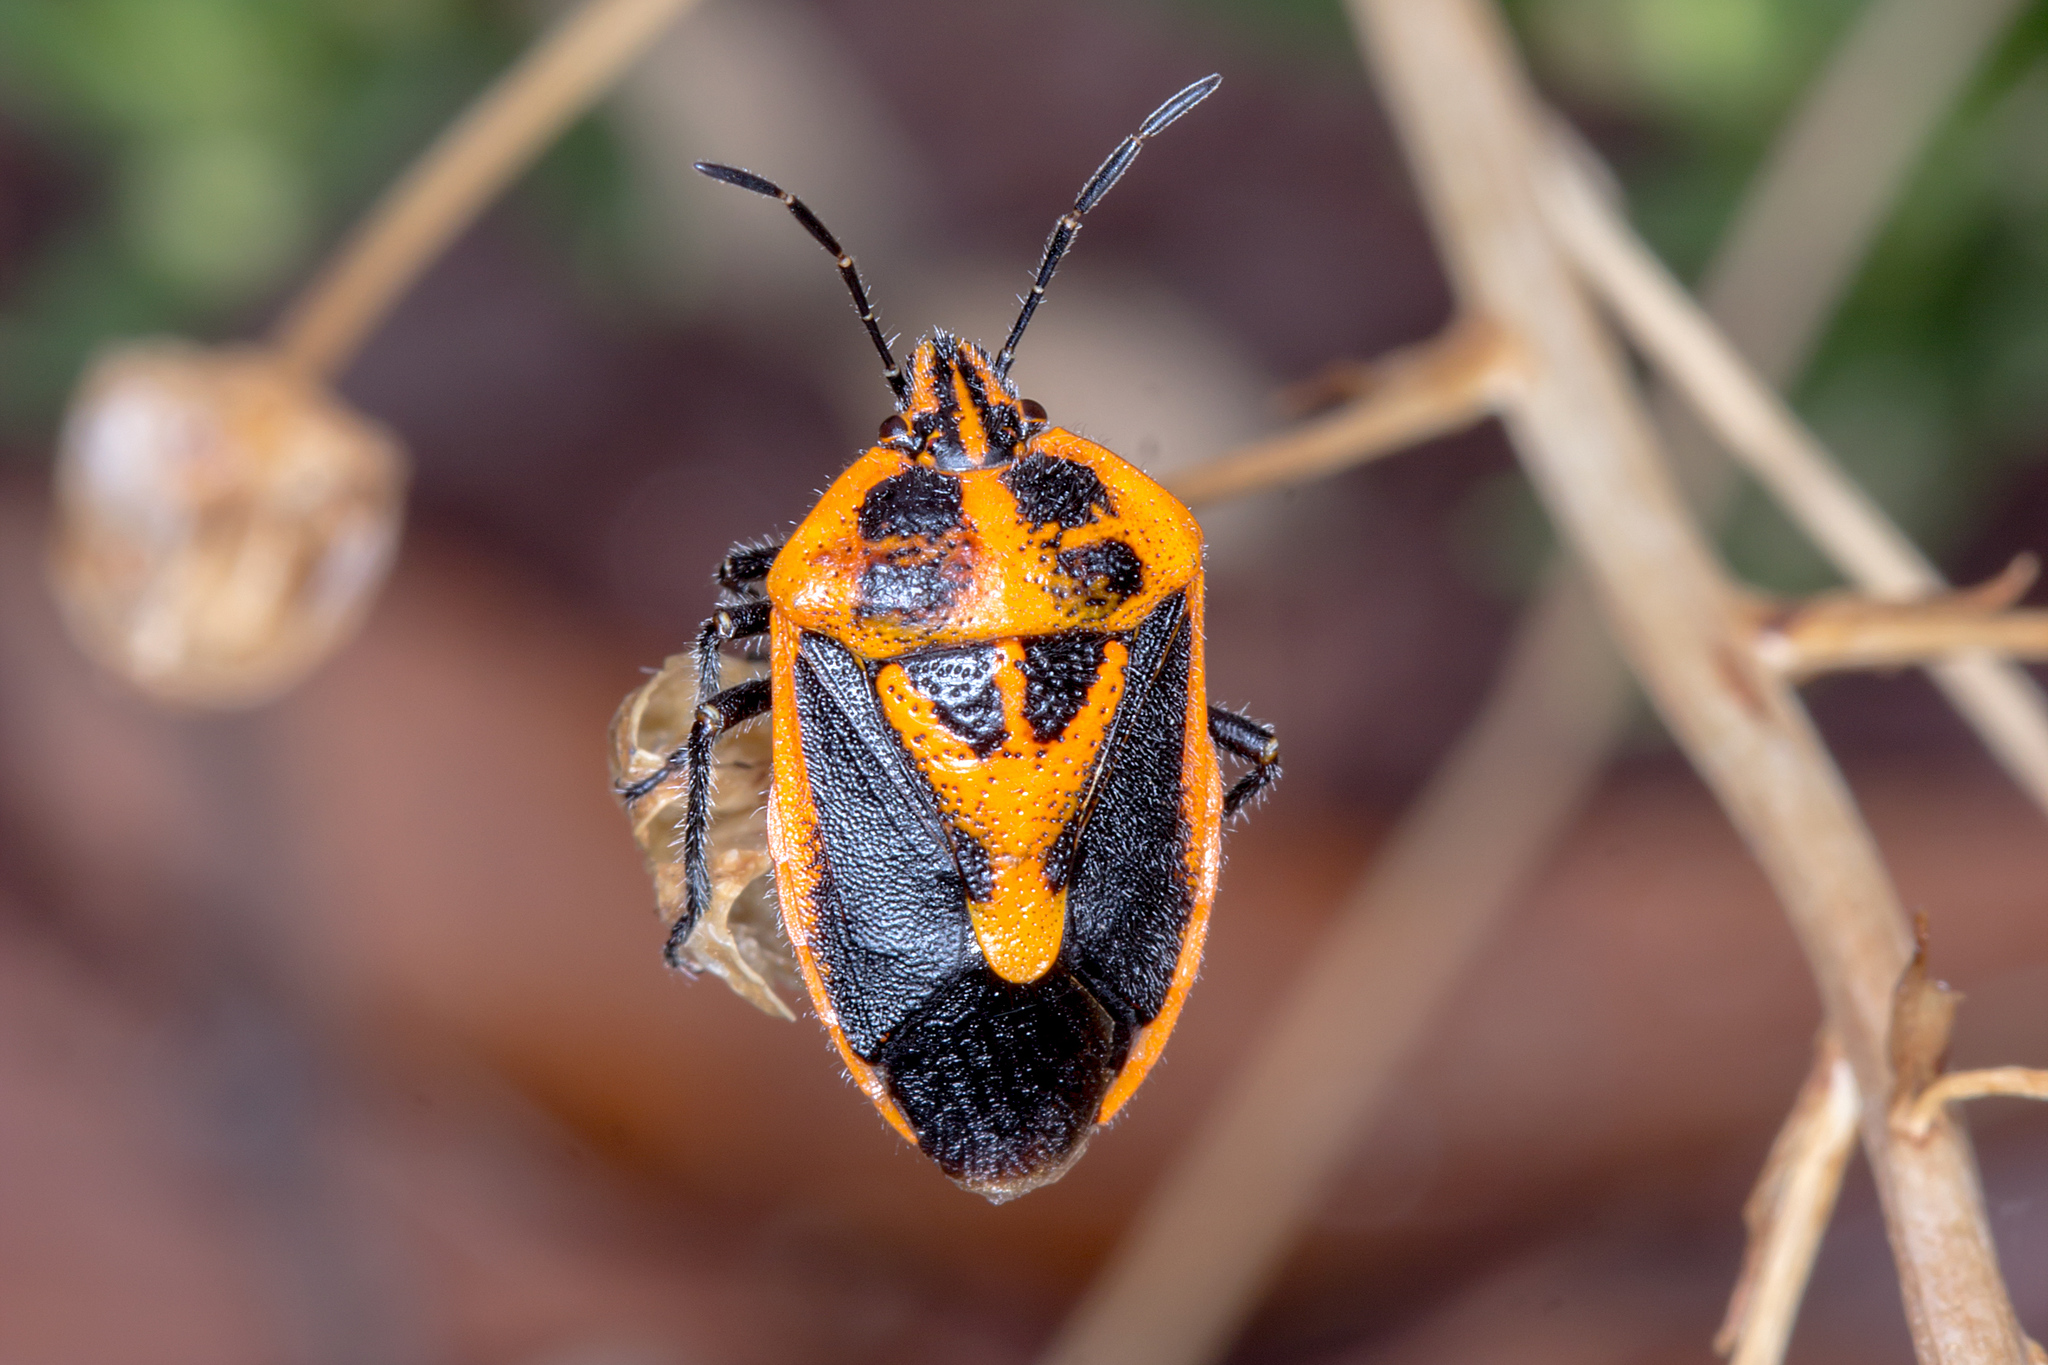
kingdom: Animalia
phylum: Arthropoda
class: Insecta
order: Hemiptera
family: Pentatomidae
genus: Agonoscelis
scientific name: Agonoscelis rutila
